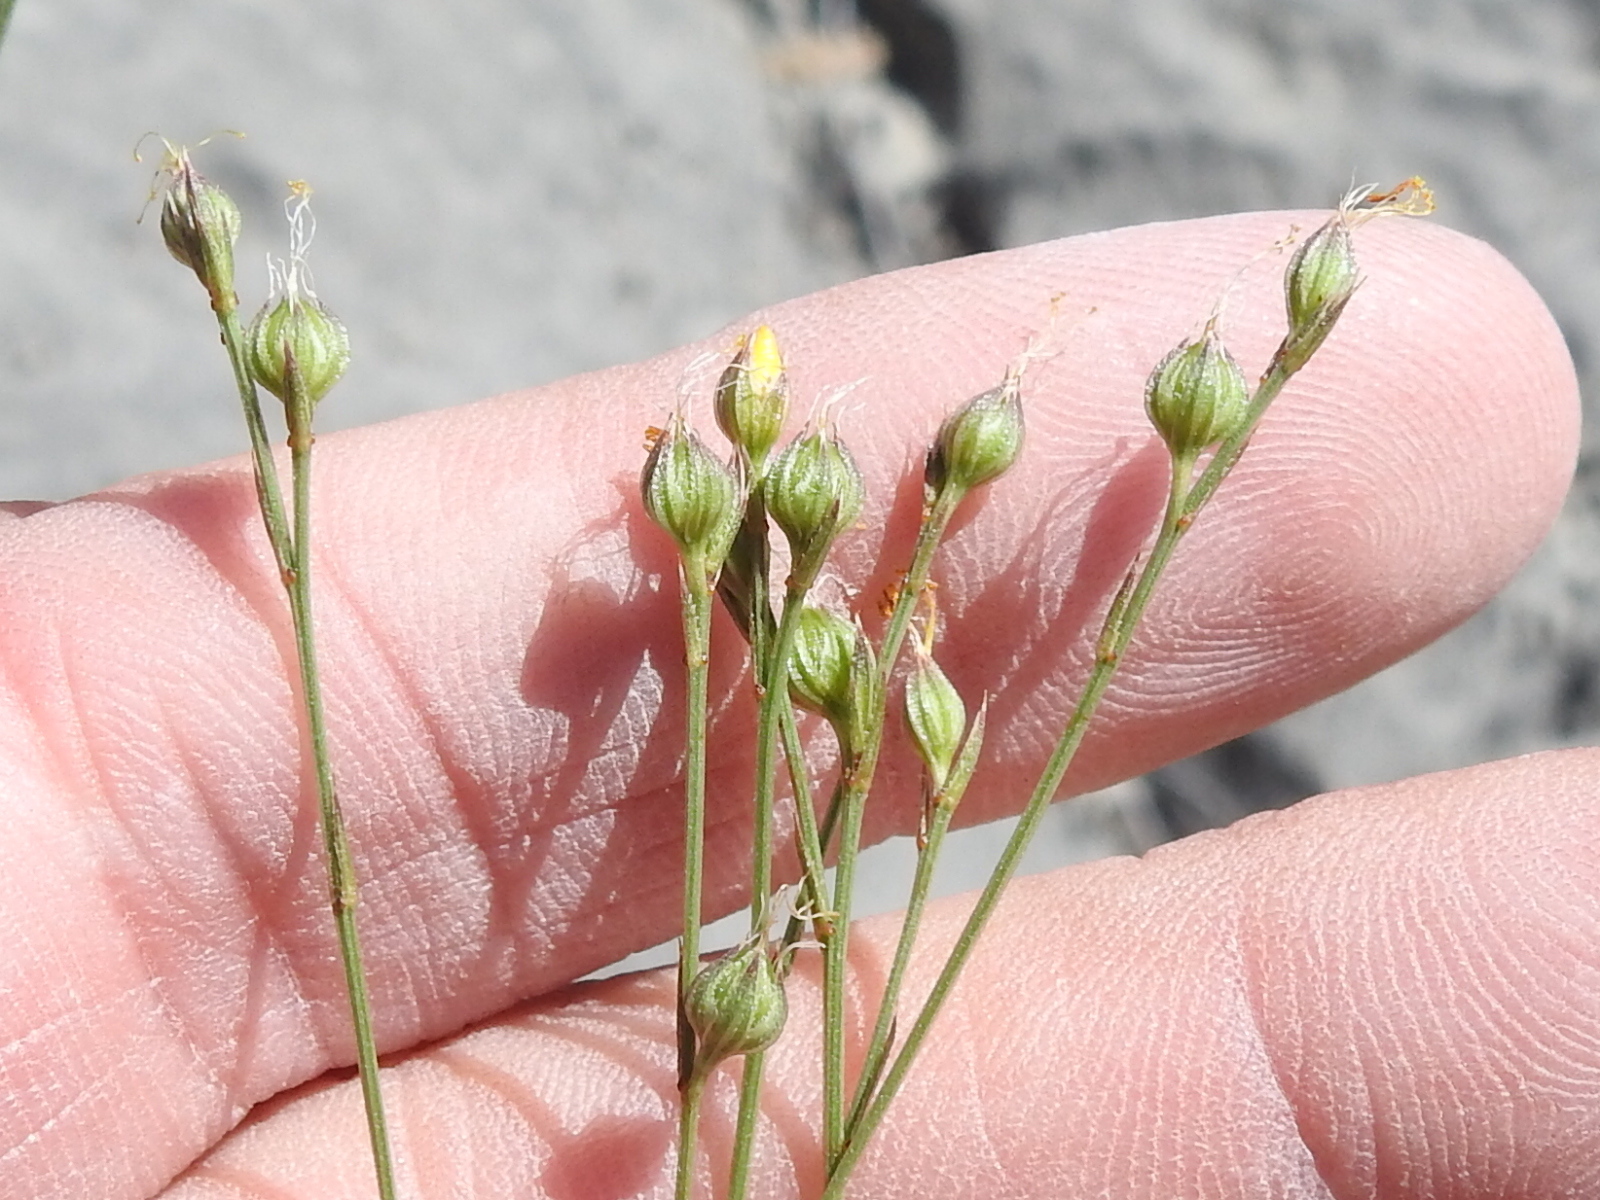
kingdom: Plantae
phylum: Tracheophyta
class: Magnoliopsida
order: Malpighiales
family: Linaceae
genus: Linum
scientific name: Linum rupestre
